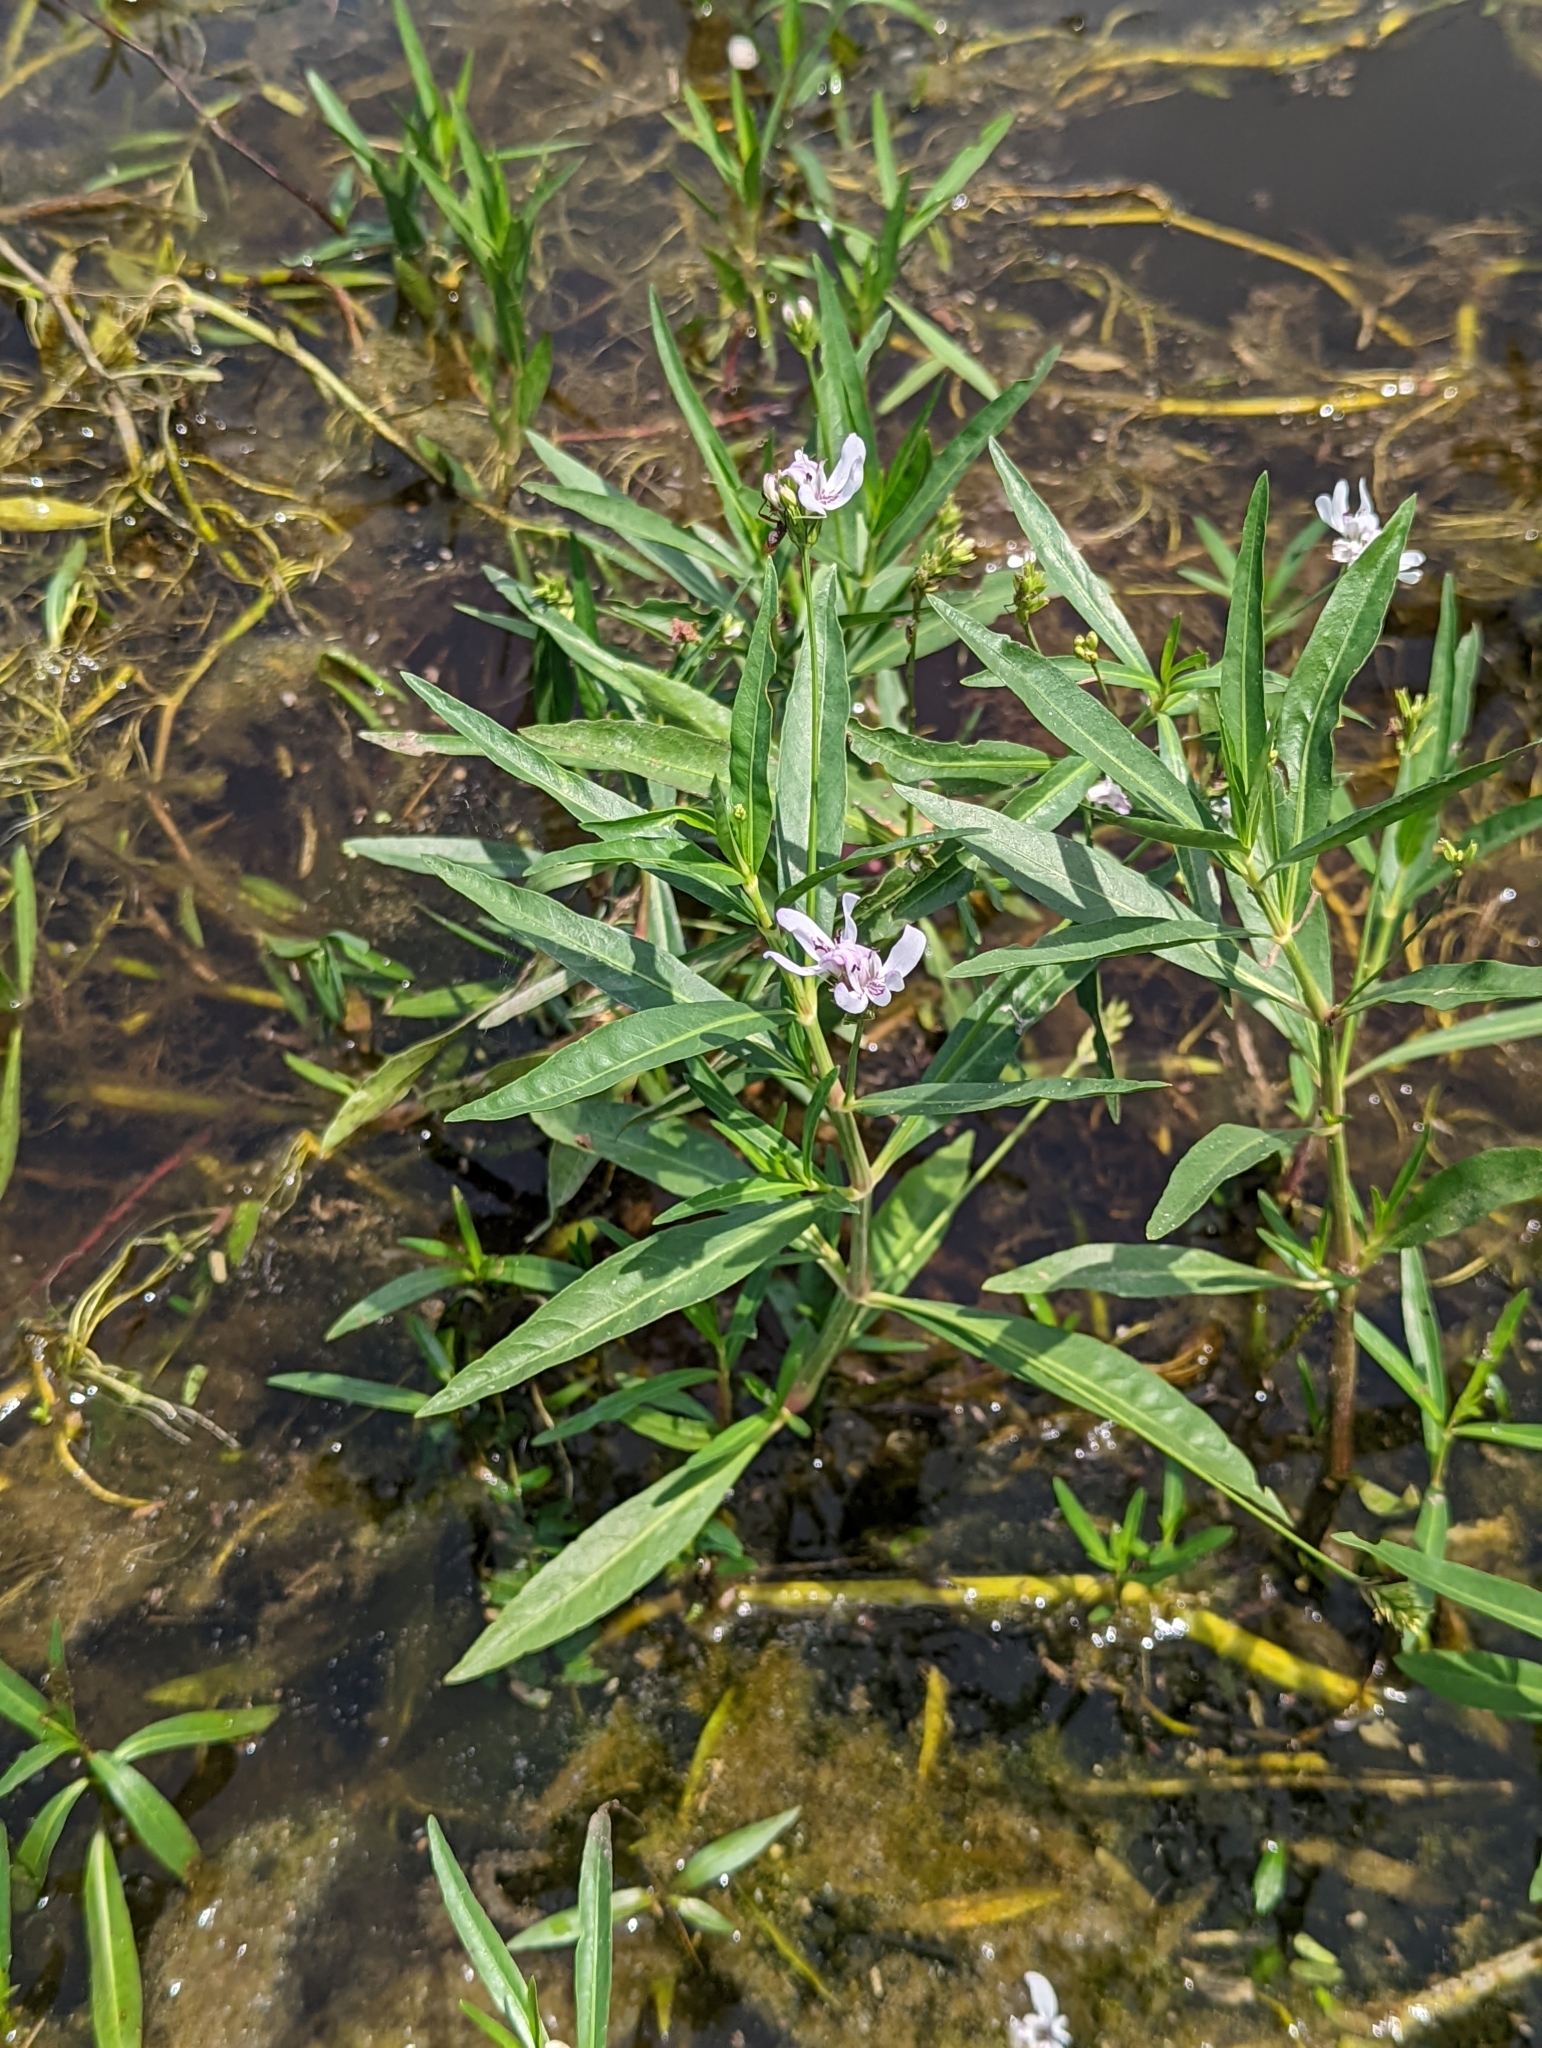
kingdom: Plantae
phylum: Tracheophyta
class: Magnoliopsida
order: Lamiales
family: Acanthaceae
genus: Dianthera
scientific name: Dianthera americana
